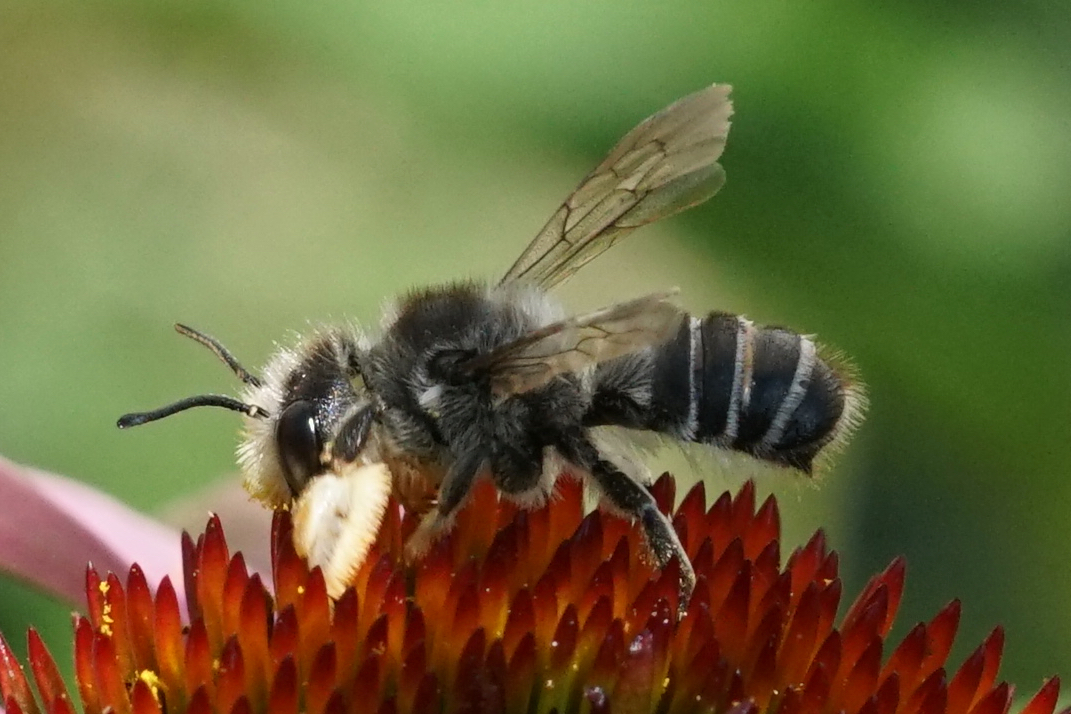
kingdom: Animalia
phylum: Arthropoda
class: Insecta
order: Hymenoptera
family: Megachilidae
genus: Megachile
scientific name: Megachile pugnata
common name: Pugnacious leafcutter bee
